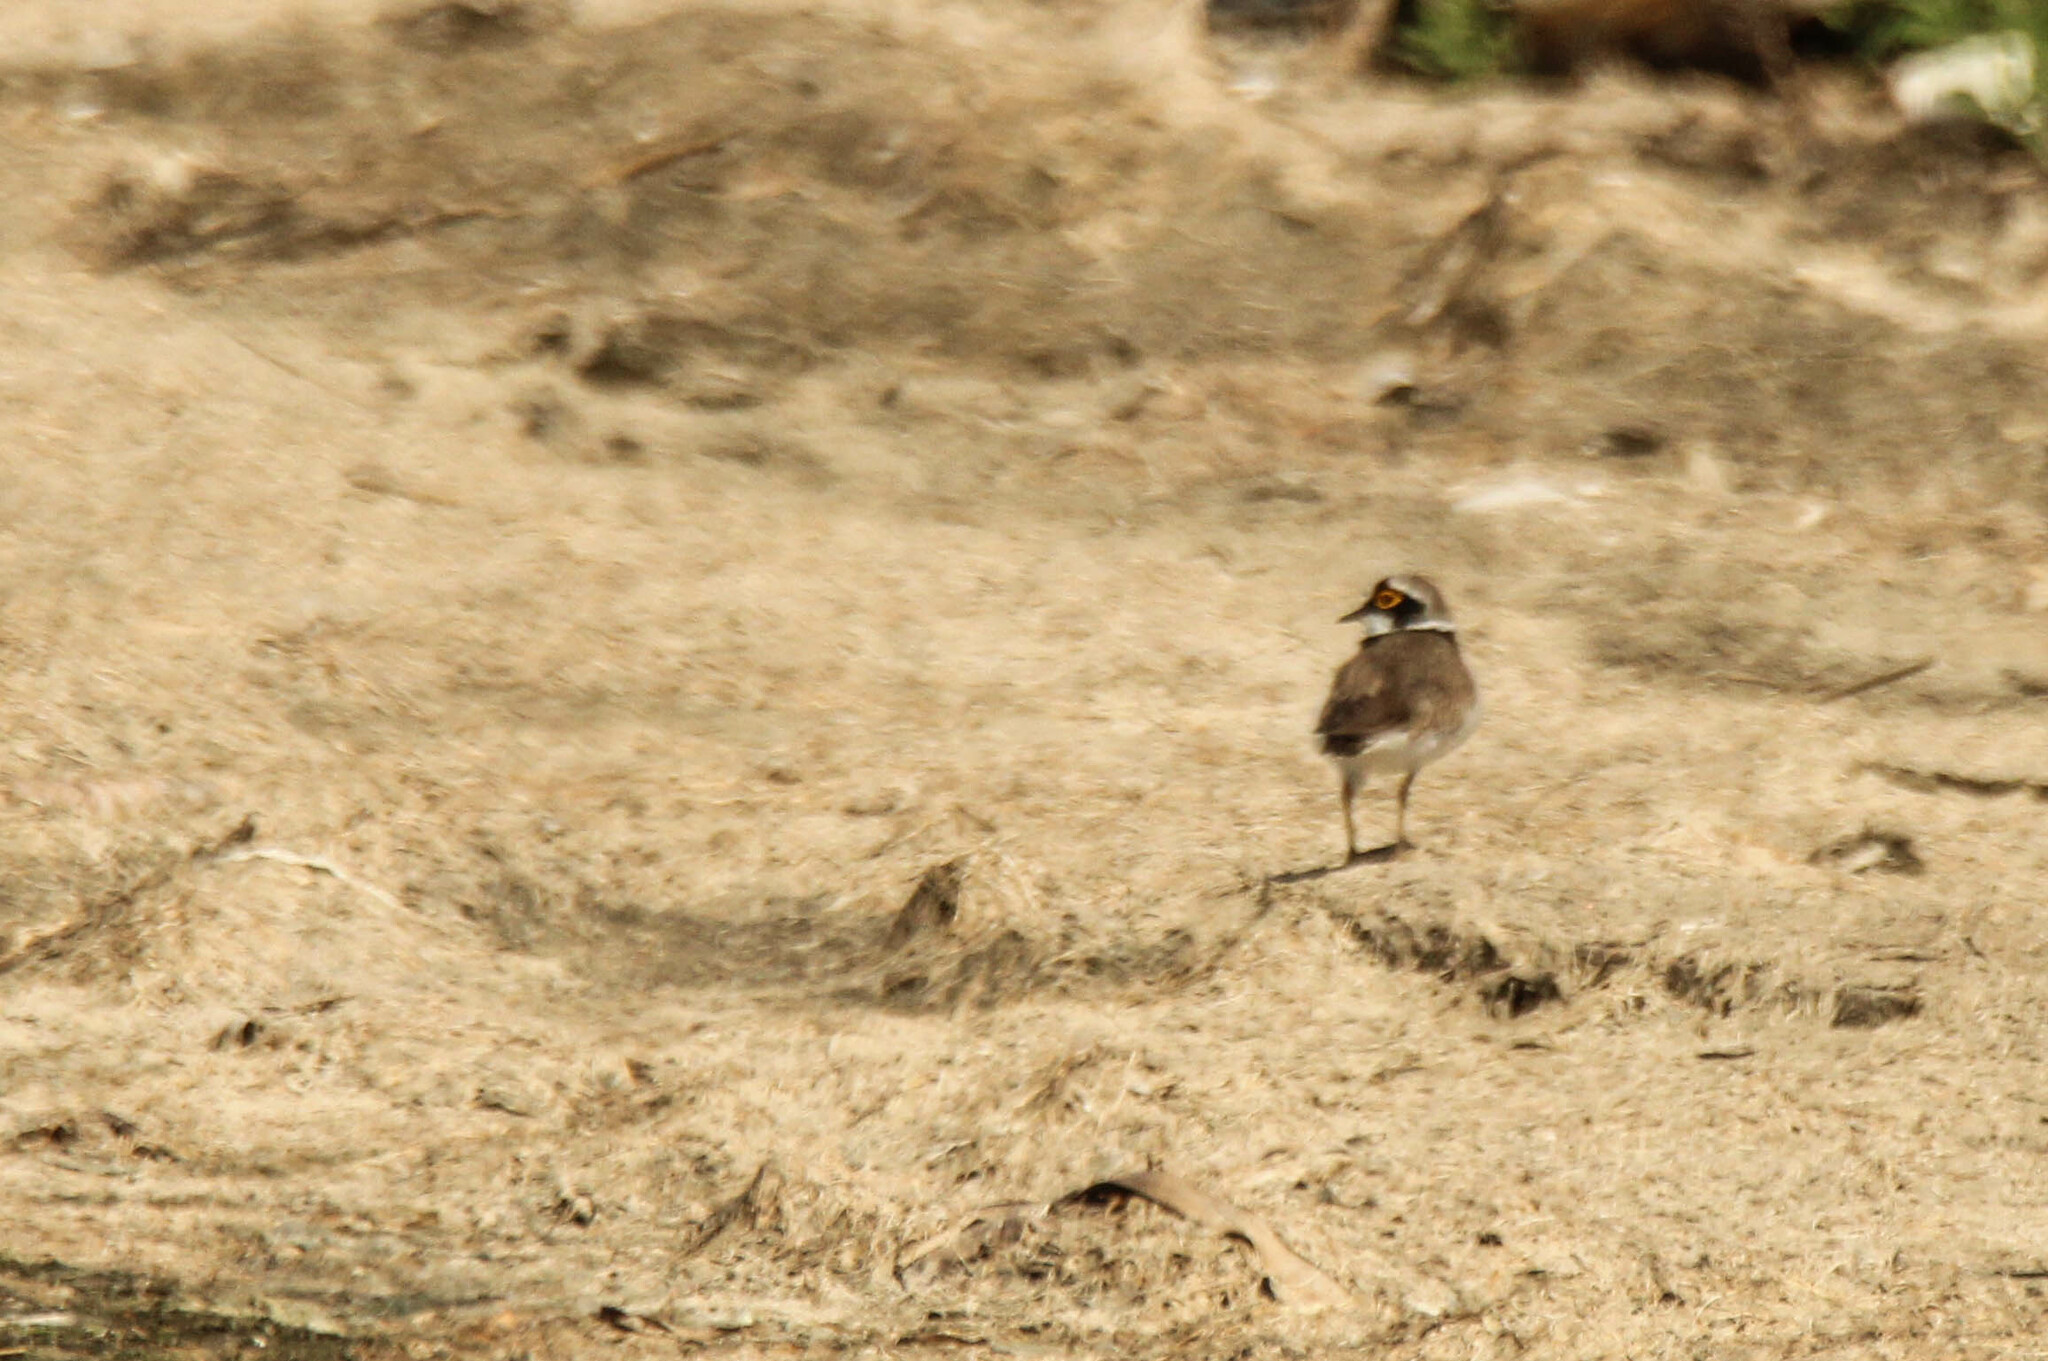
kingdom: Animalia
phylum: Chordata
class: Aves
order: Charadriiformes
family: Charadriidae
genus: Charadrius
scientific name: Charadrius dubius
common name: Little ringed plover
